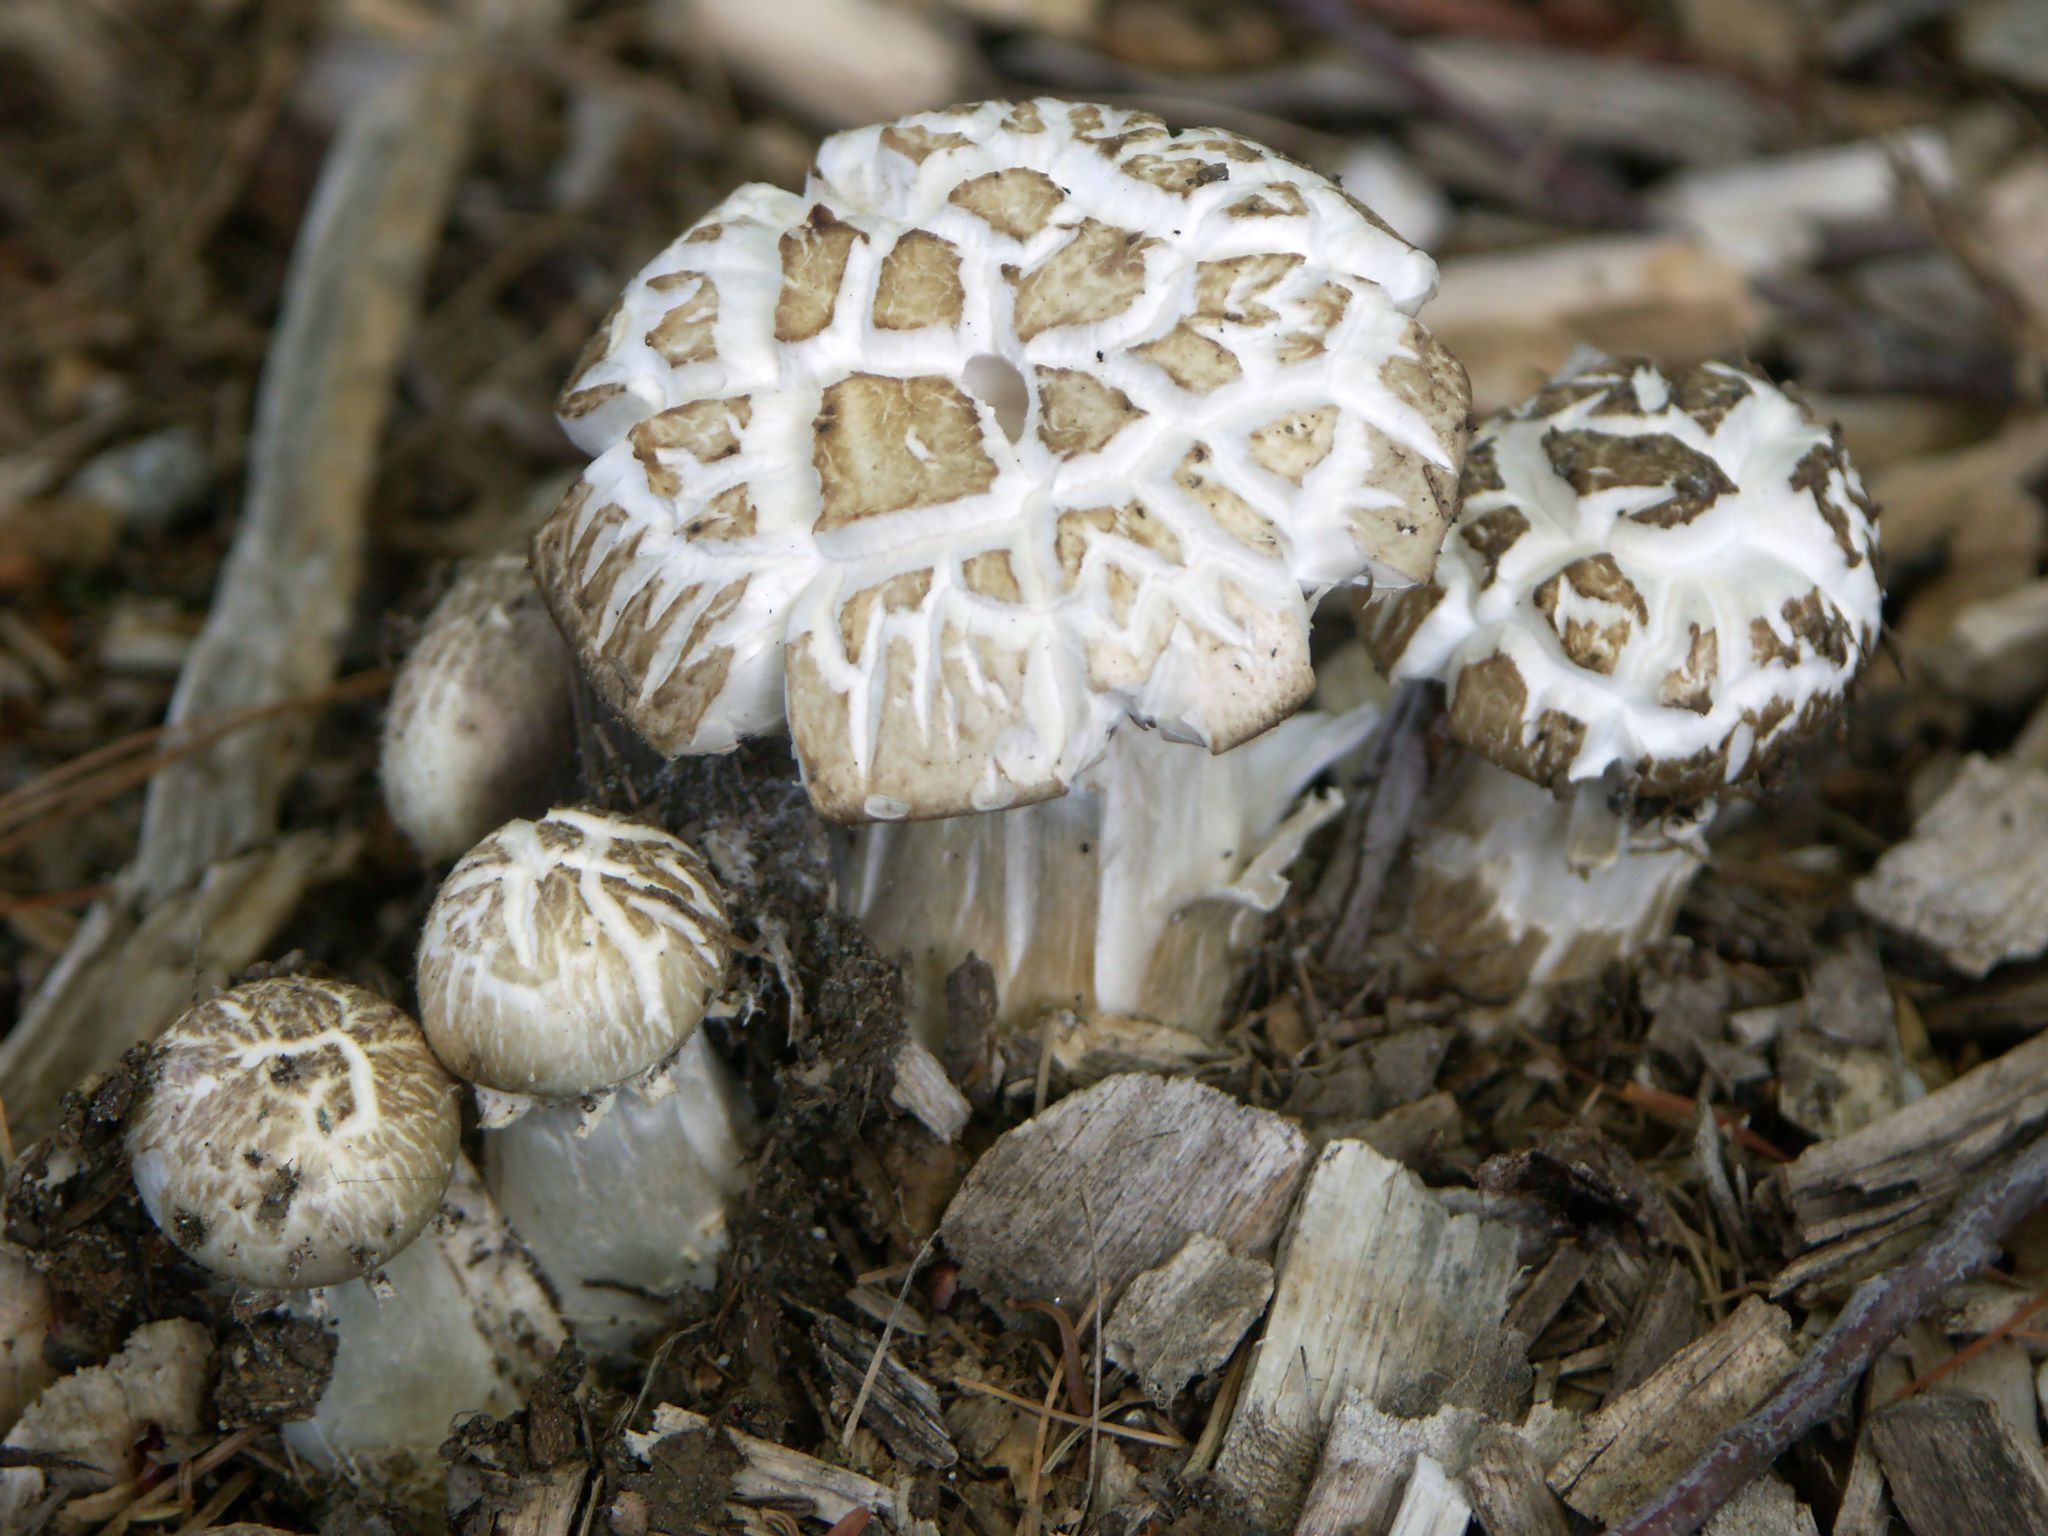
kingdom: Fungi
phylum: Basidiomycota
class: Agaricomycetes
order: Agaricales
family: Strophariaceae
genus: Stropharia
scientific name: Stropharia rugosoannulata
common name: Wine roundhead
